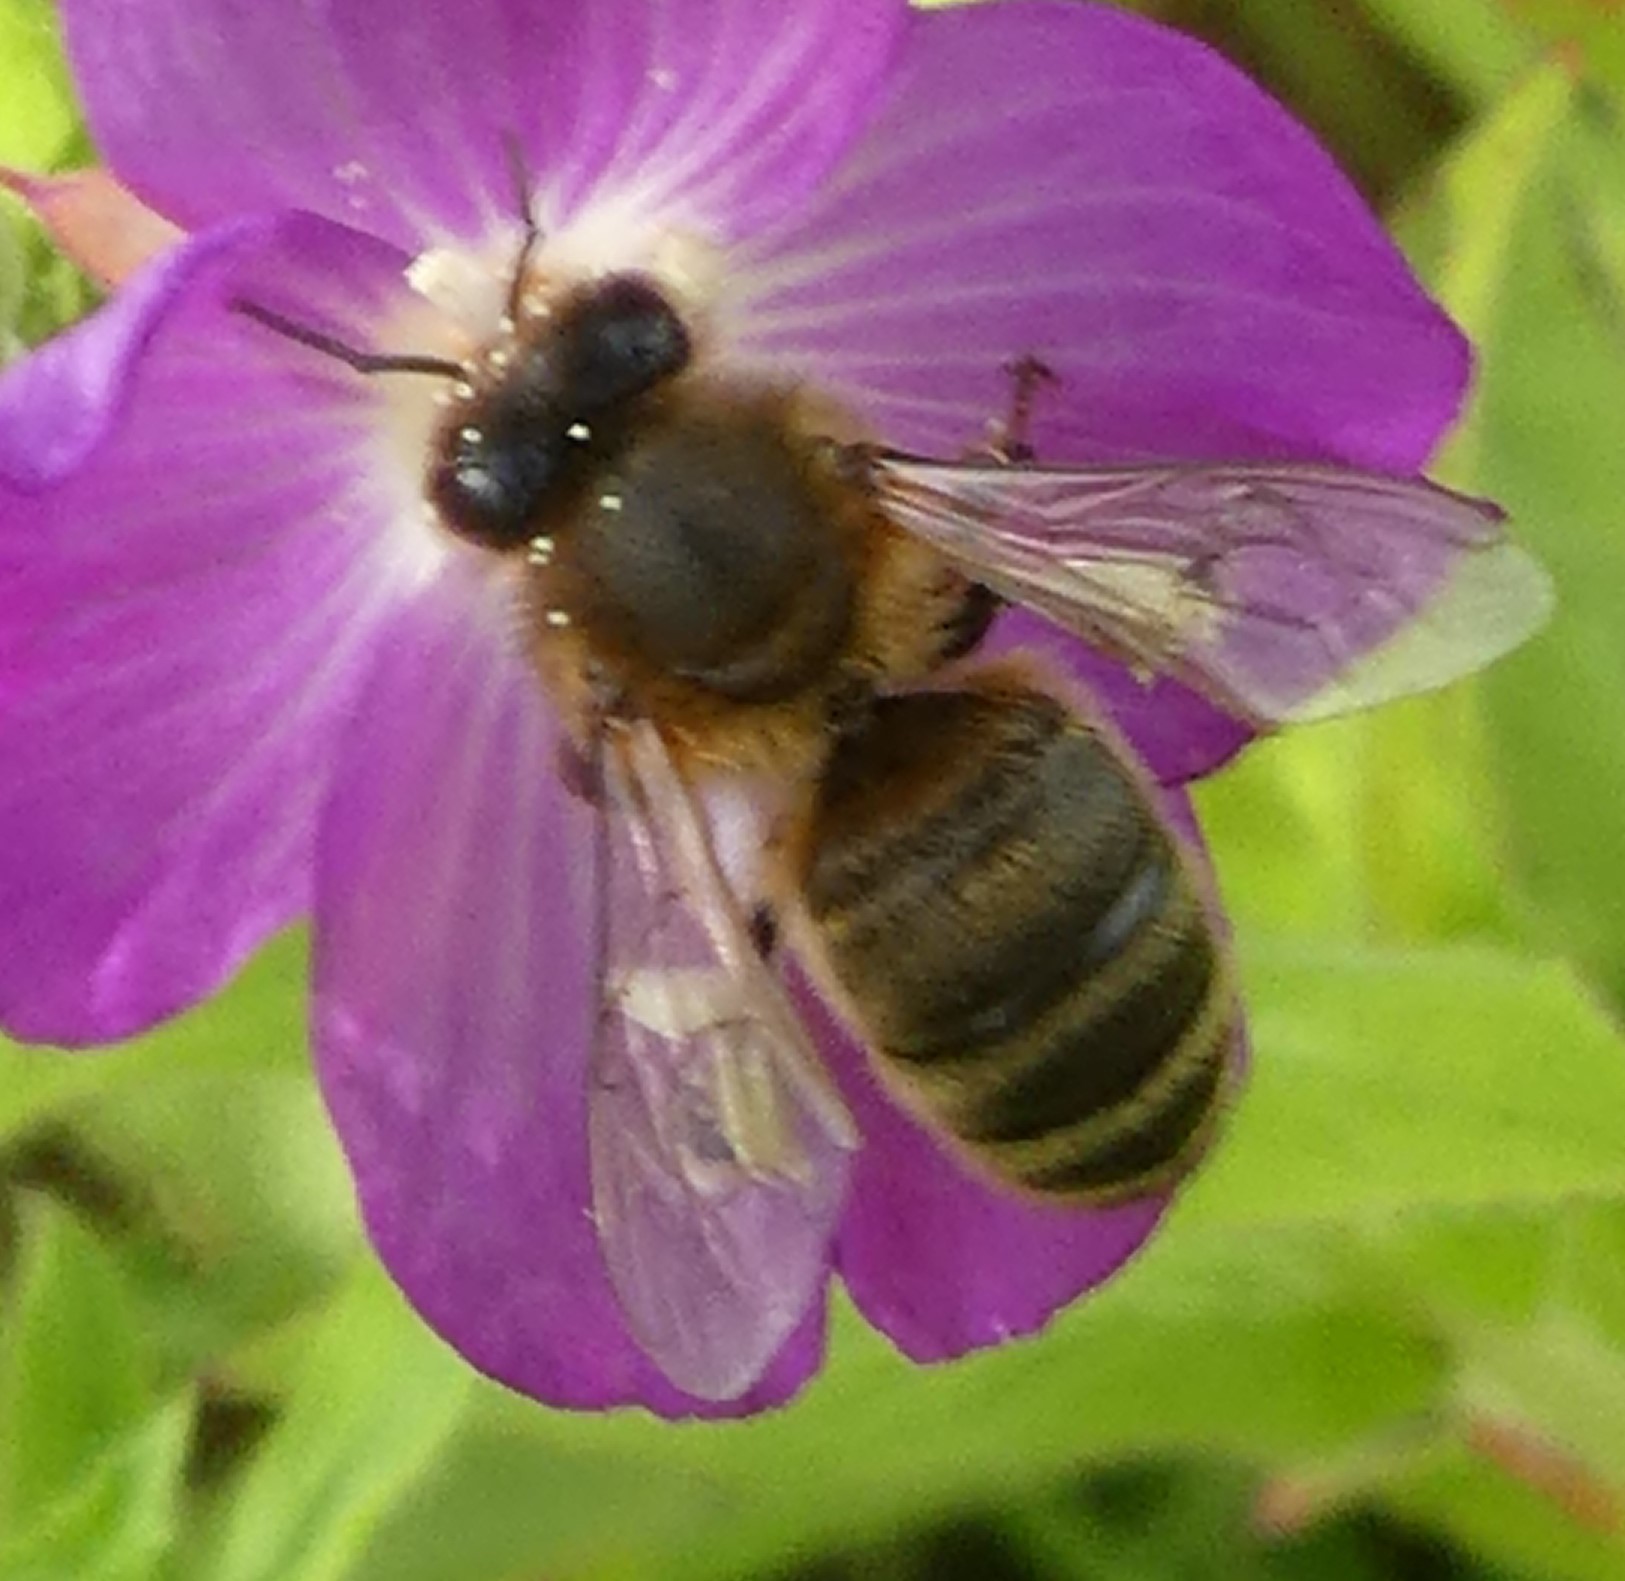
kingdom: Animalia
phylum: Arthropoda
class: Insecta
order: Hymenoptera
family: Apidae
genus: Apis
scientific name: Apis mellifera
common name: Honey bee
